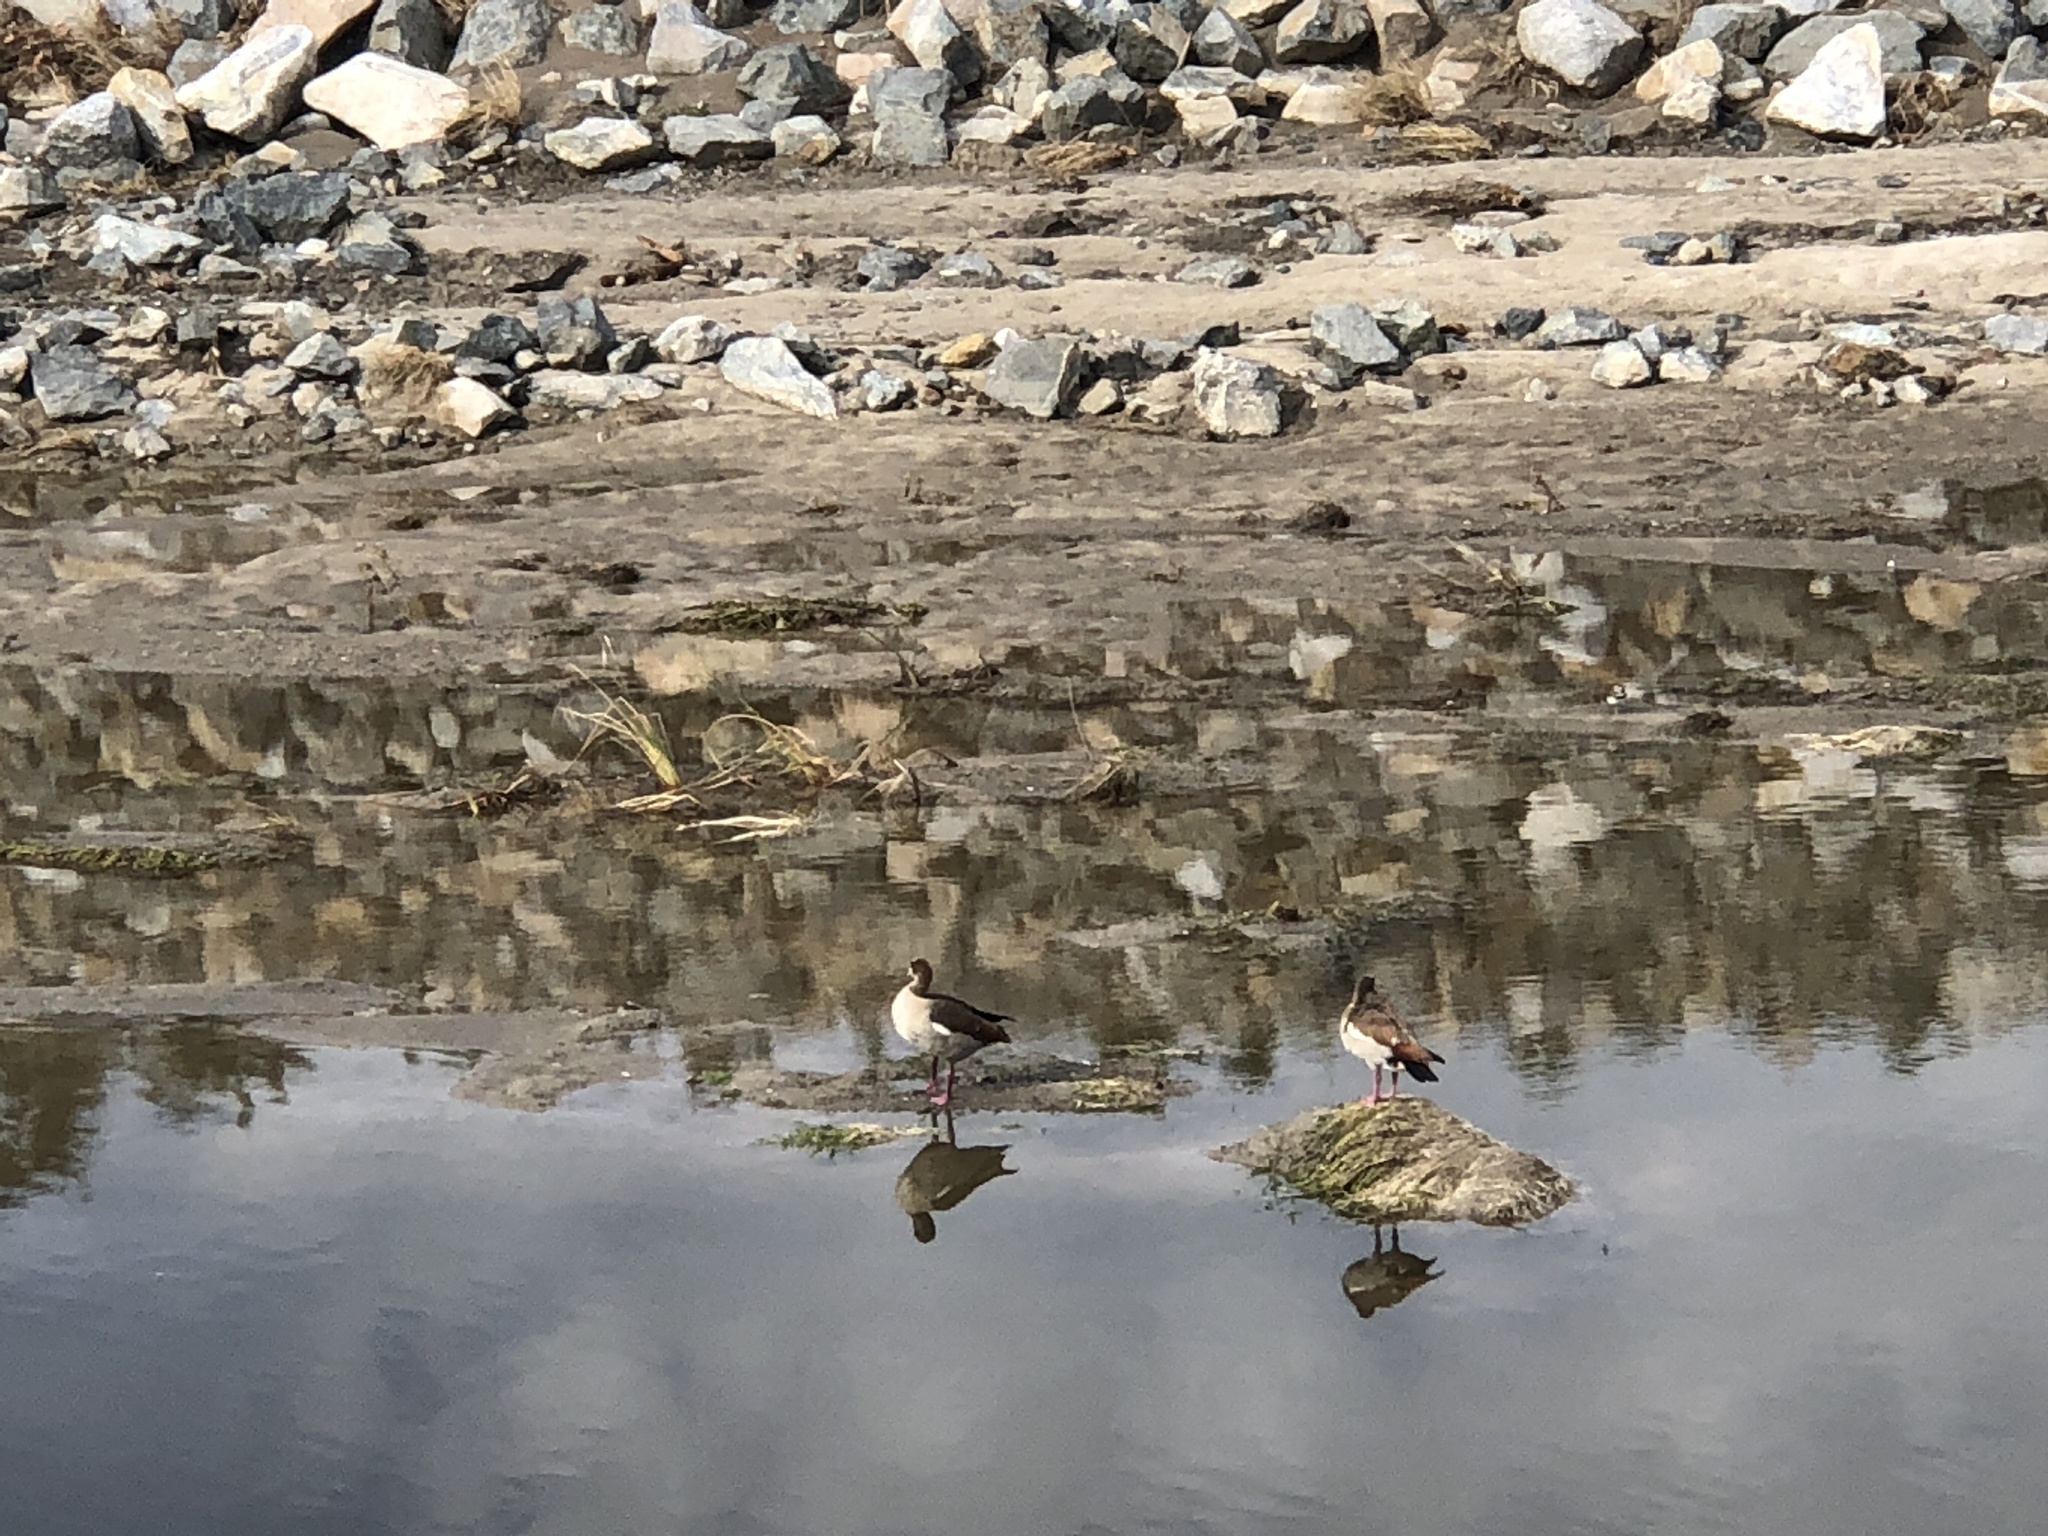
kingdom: Animalia
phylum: Chordata
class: Aves
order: Anseriformes
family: Anatidae
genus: Alopochen
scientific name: Alopochen aegyptiaca
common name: Egyptian goose
